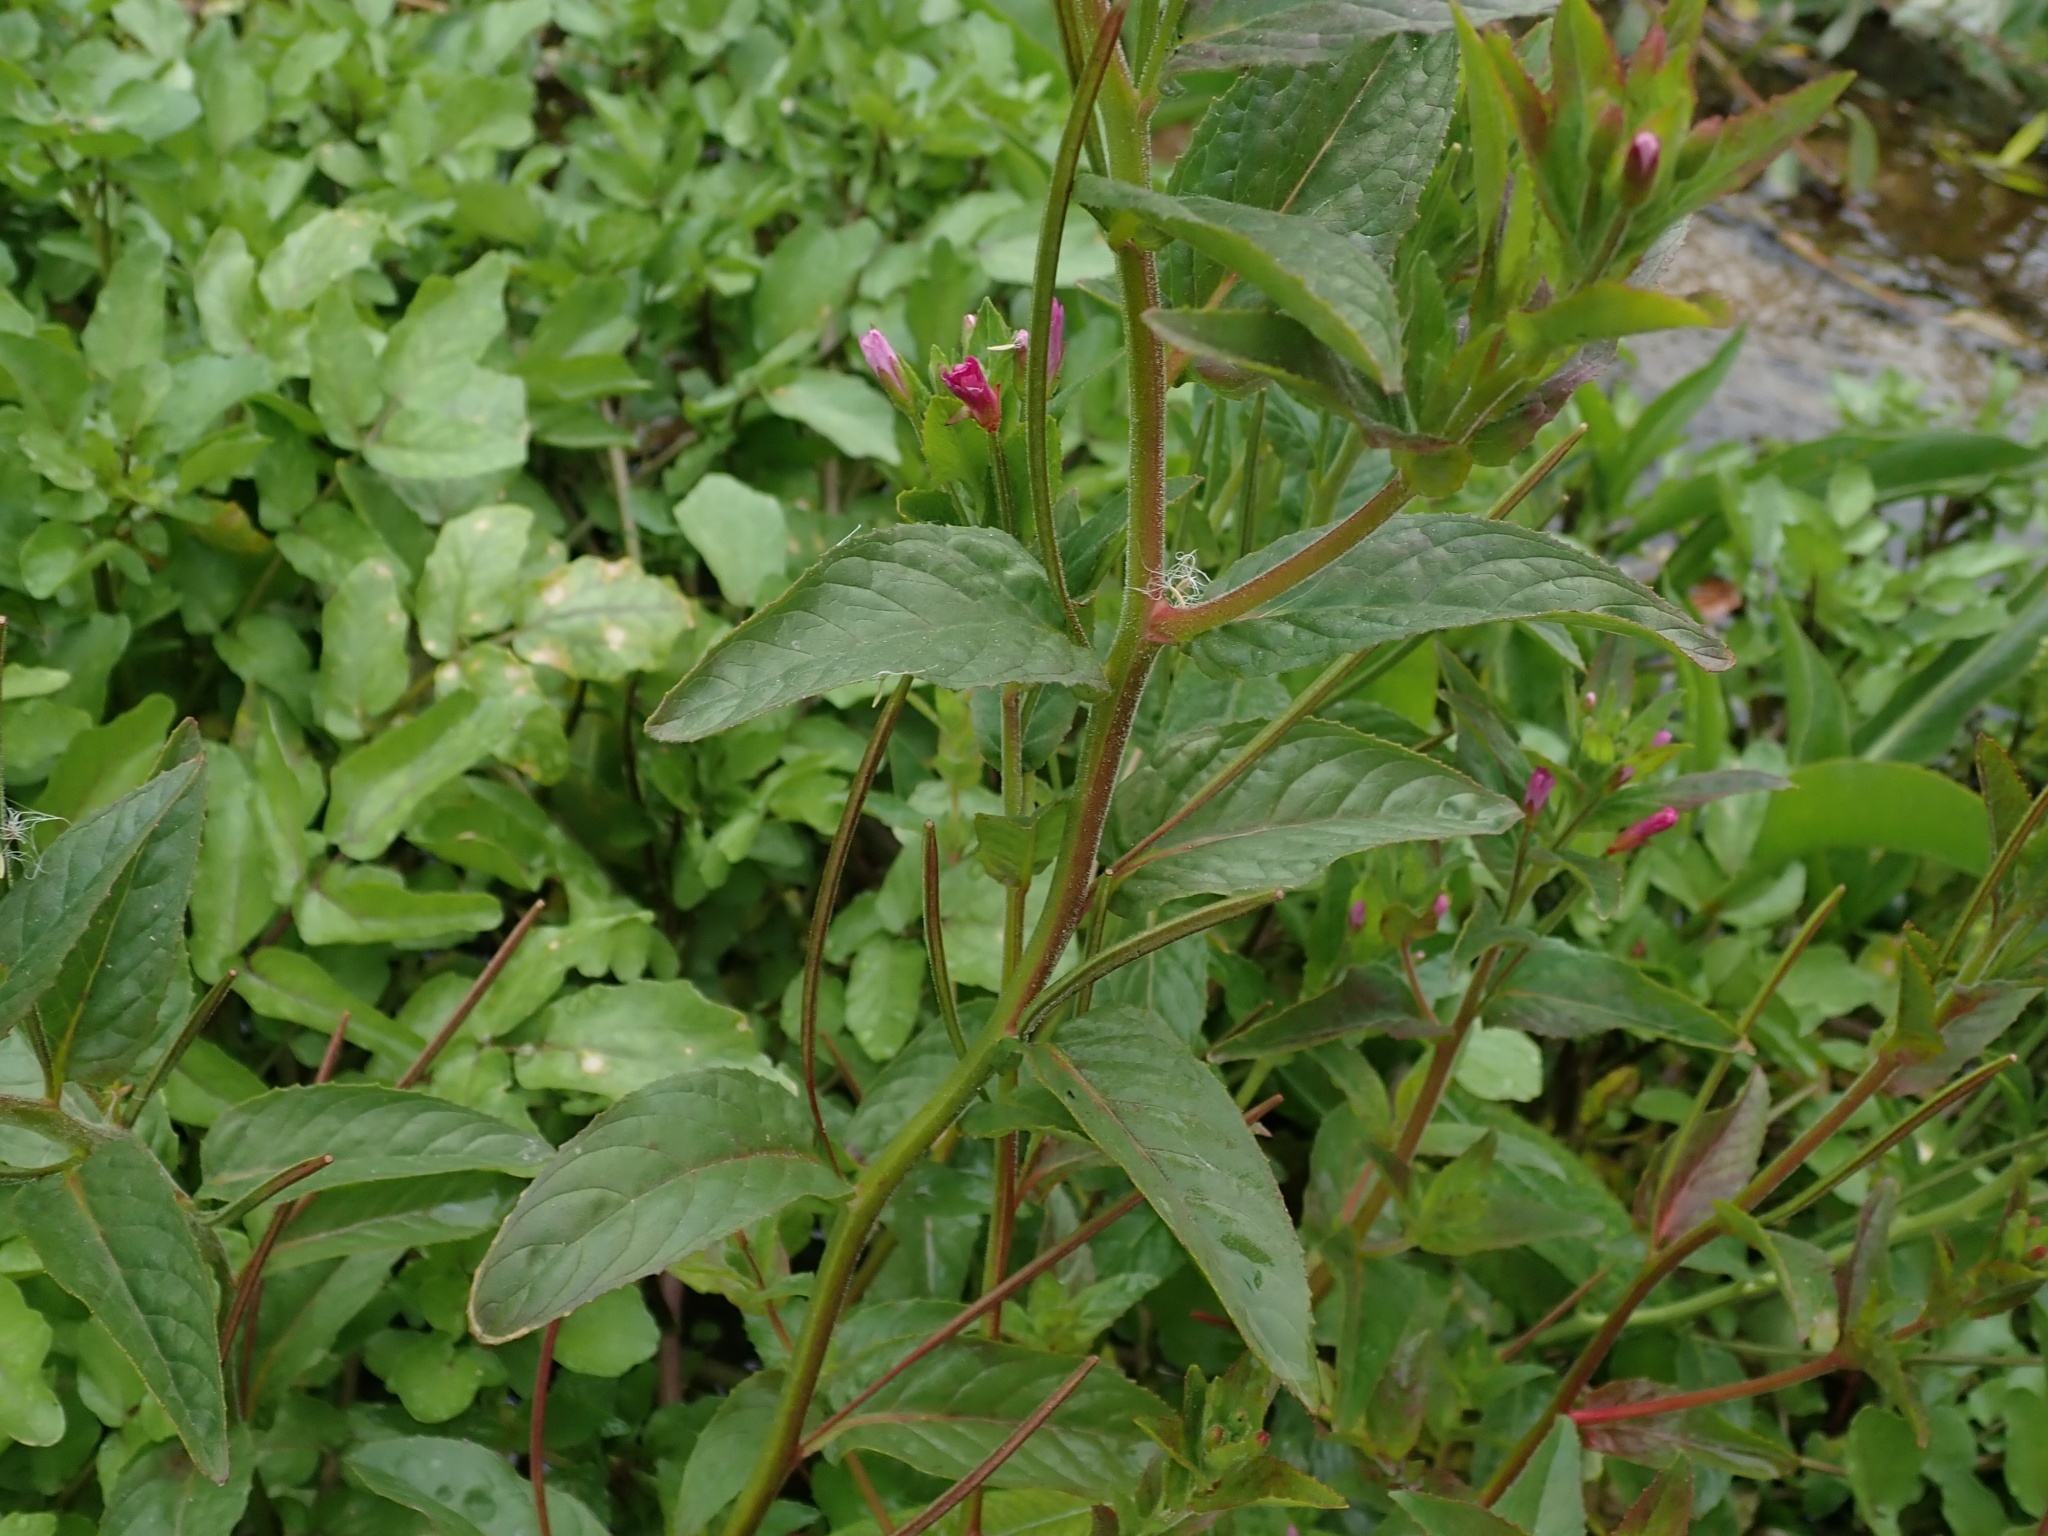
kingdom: Plantae
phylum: Tracheophyta
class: Magnoliopsida
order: Myrtales
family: Onagraceae
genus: Epilobium
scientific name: Epilobium ciliatum
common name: American willowherb
